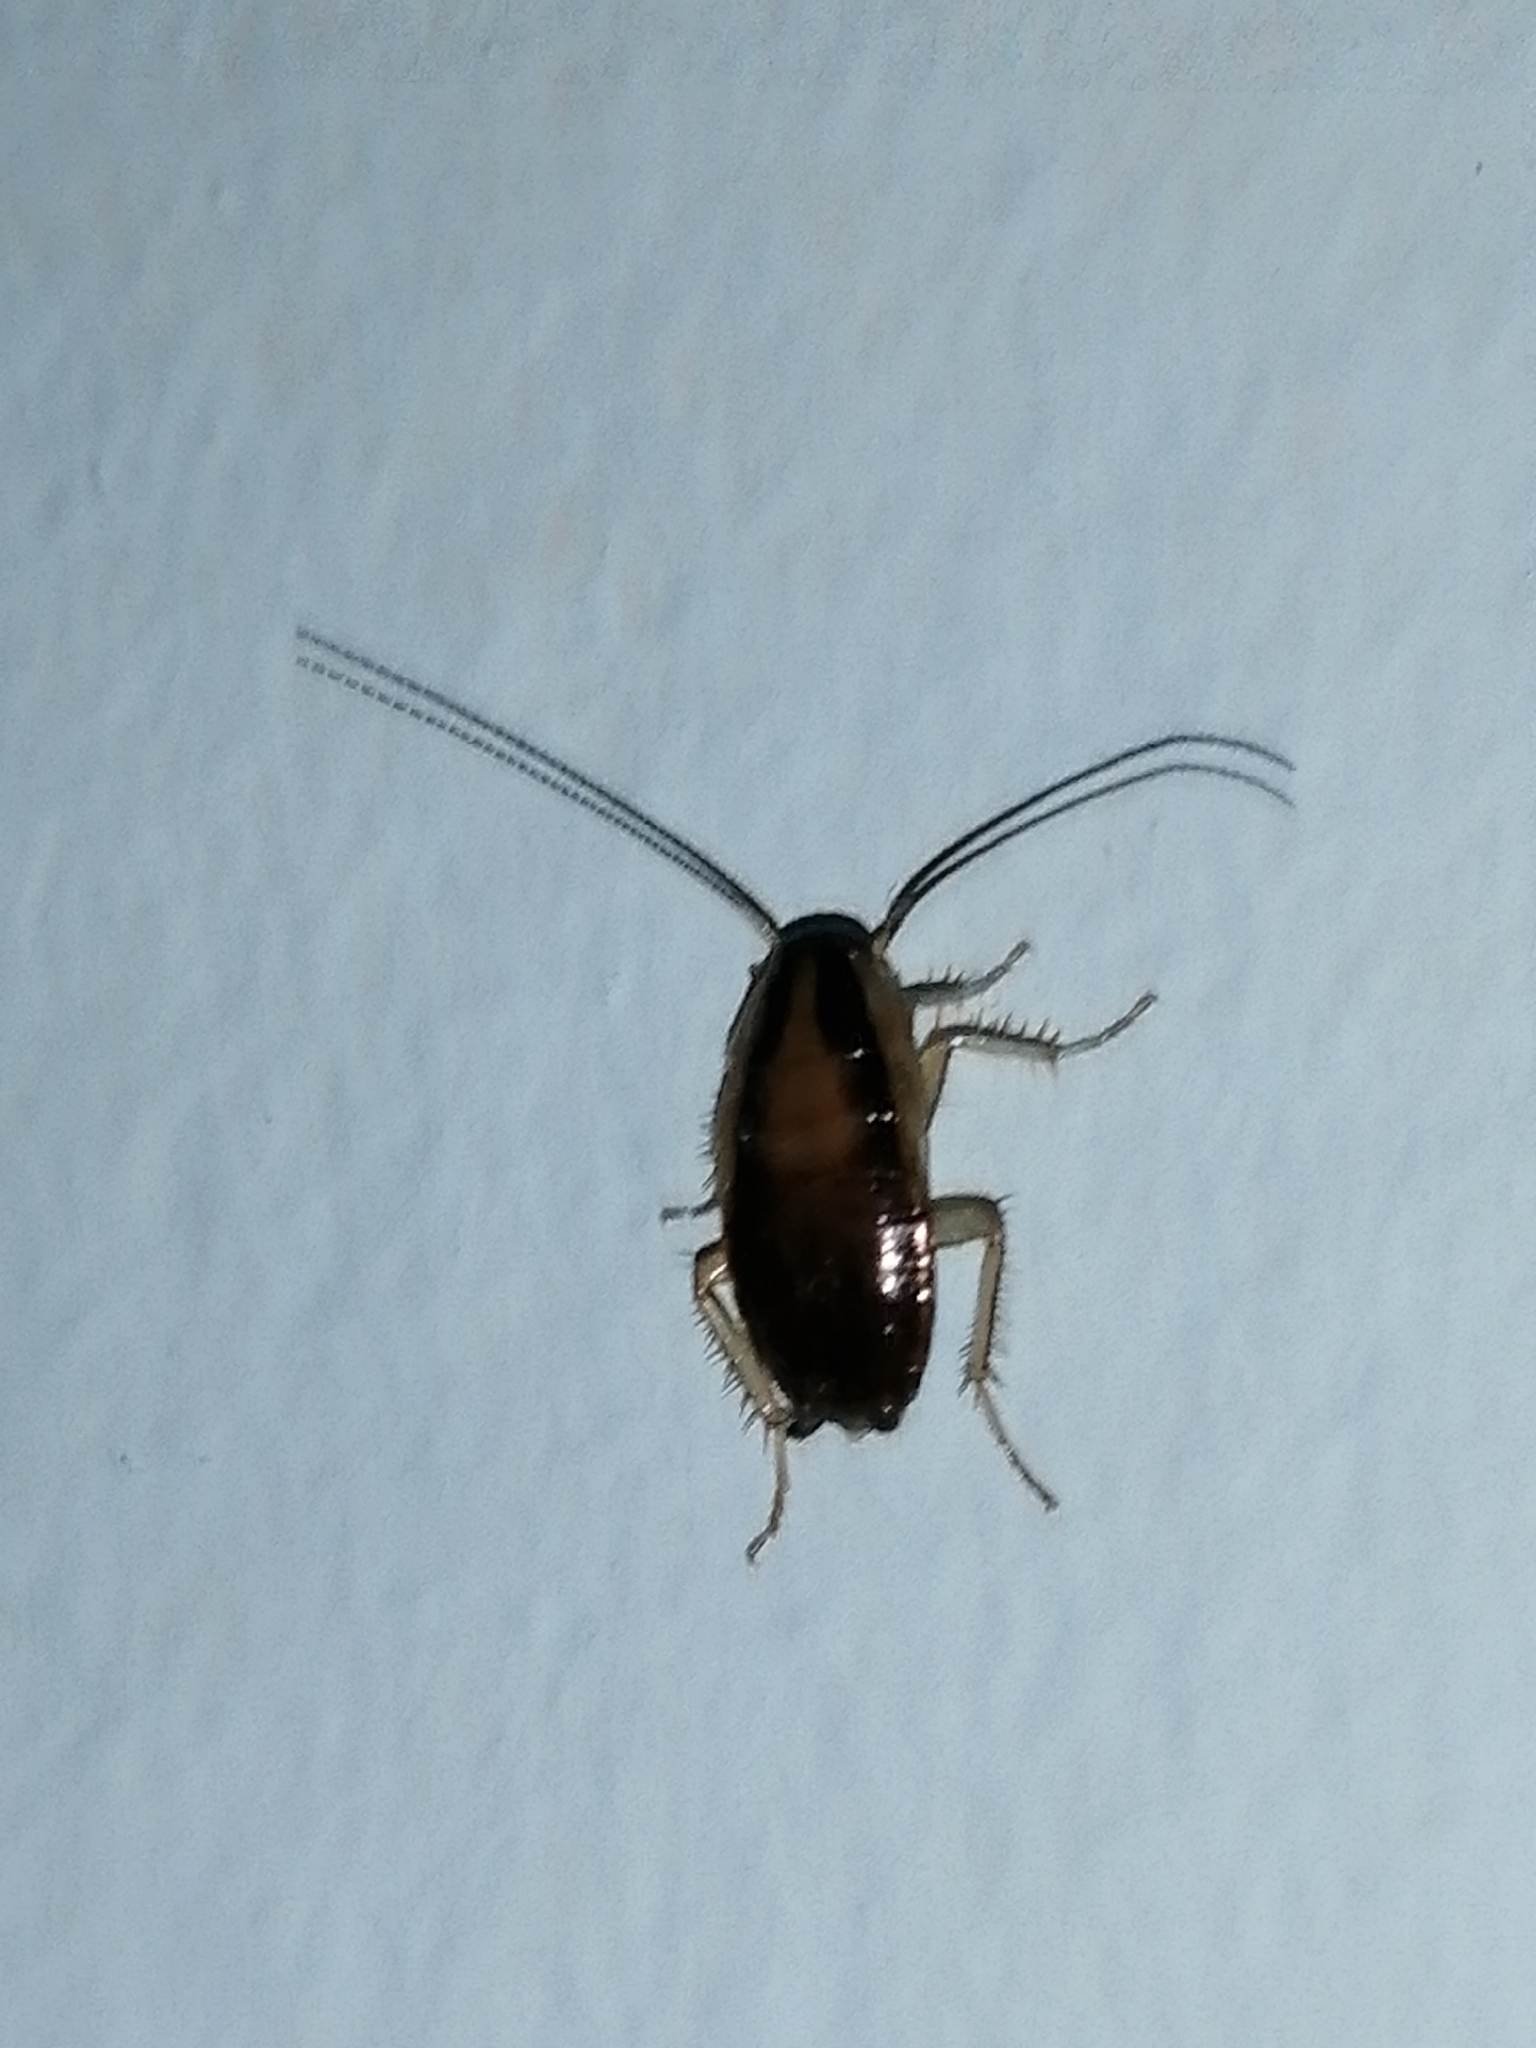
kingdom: Animalia
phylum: Arthropoda
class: Insecta
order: Blattodea
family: Ectobiidae
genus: Blattella
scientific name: Blattella germanica
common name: German cockroach
